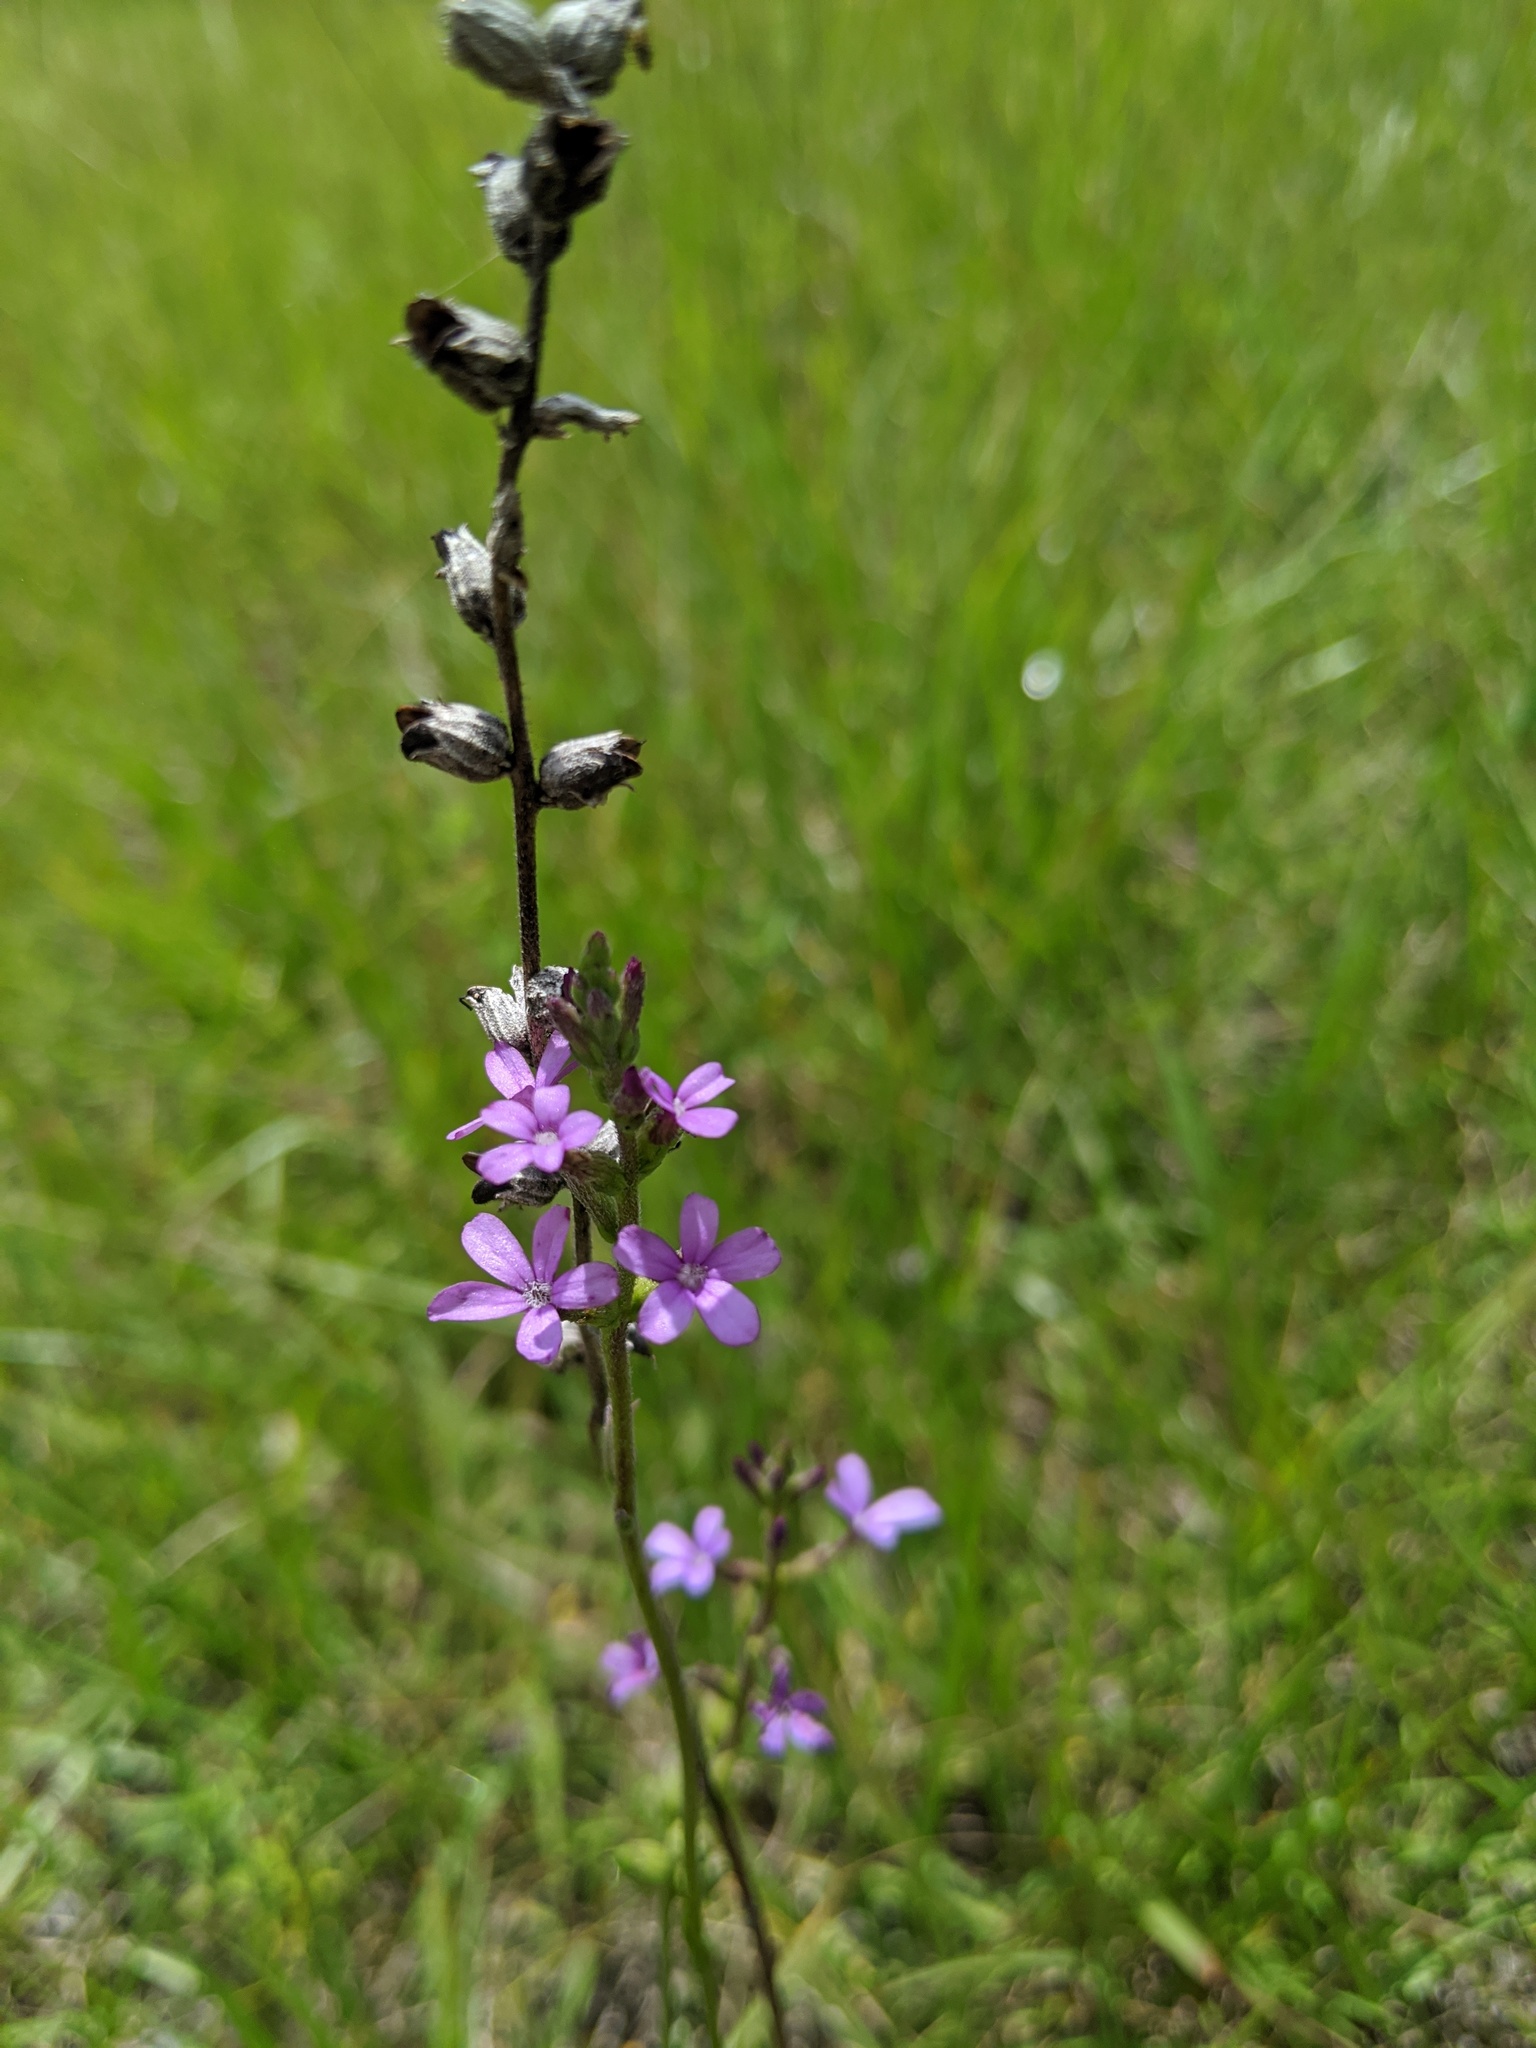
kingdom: Plantae
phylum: Tracheophyta
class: Magnoliopsida
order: Lamiales
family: Orobanchaceae
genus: Buchnera
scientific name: Buchnera floridana
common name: Florida bluehearts
